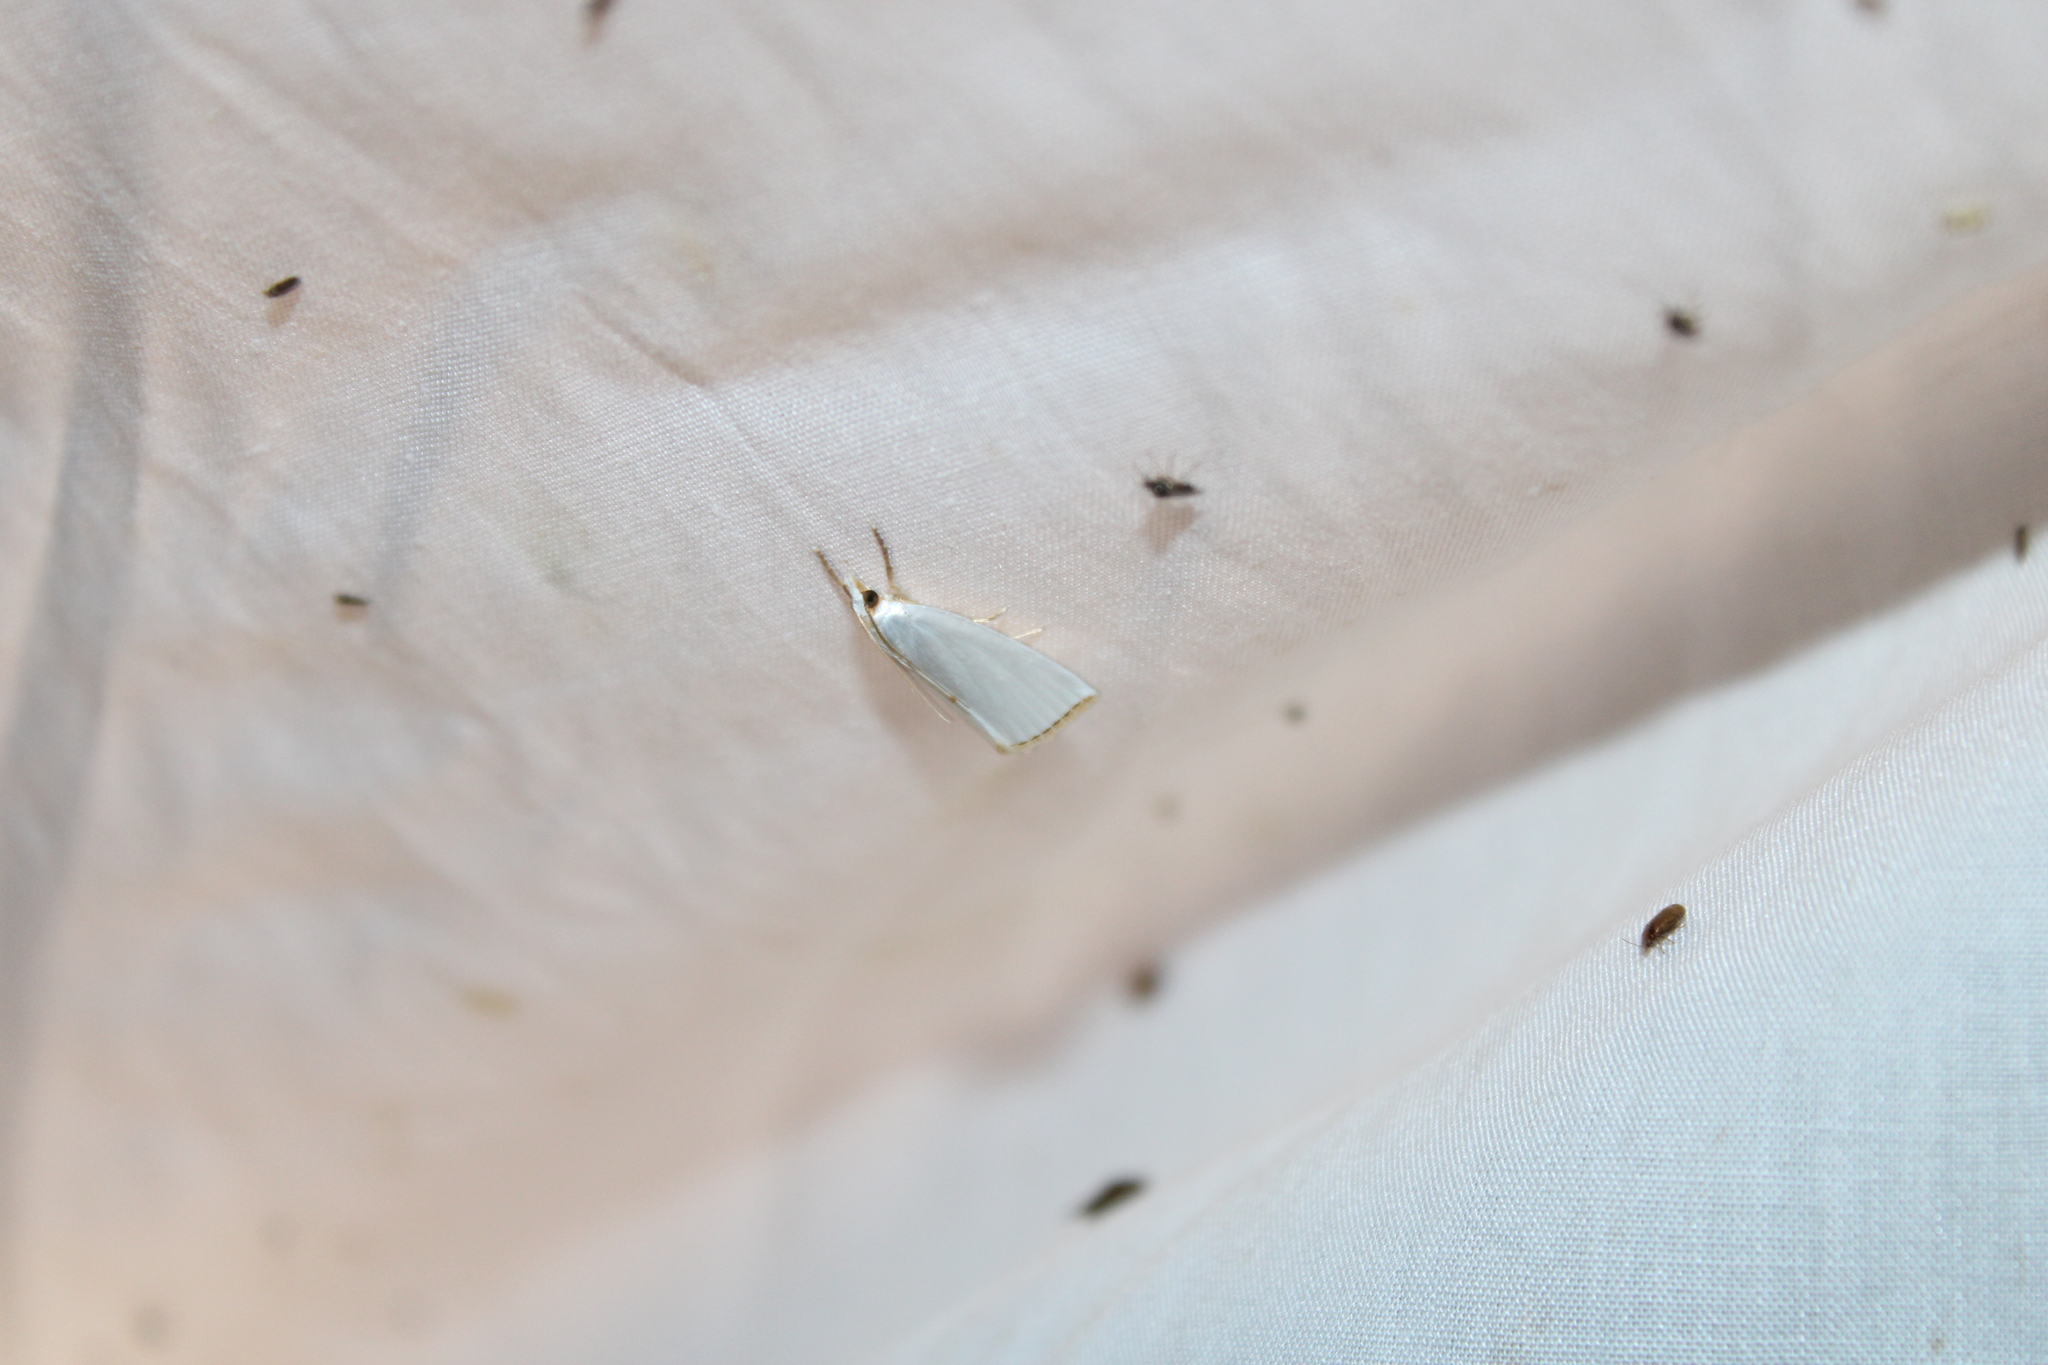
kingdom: Animalia
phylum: Arthropoda
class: Insecta
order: Lepidoptera
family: Crambidae
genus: Argyria
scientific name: Argyria nivalis
